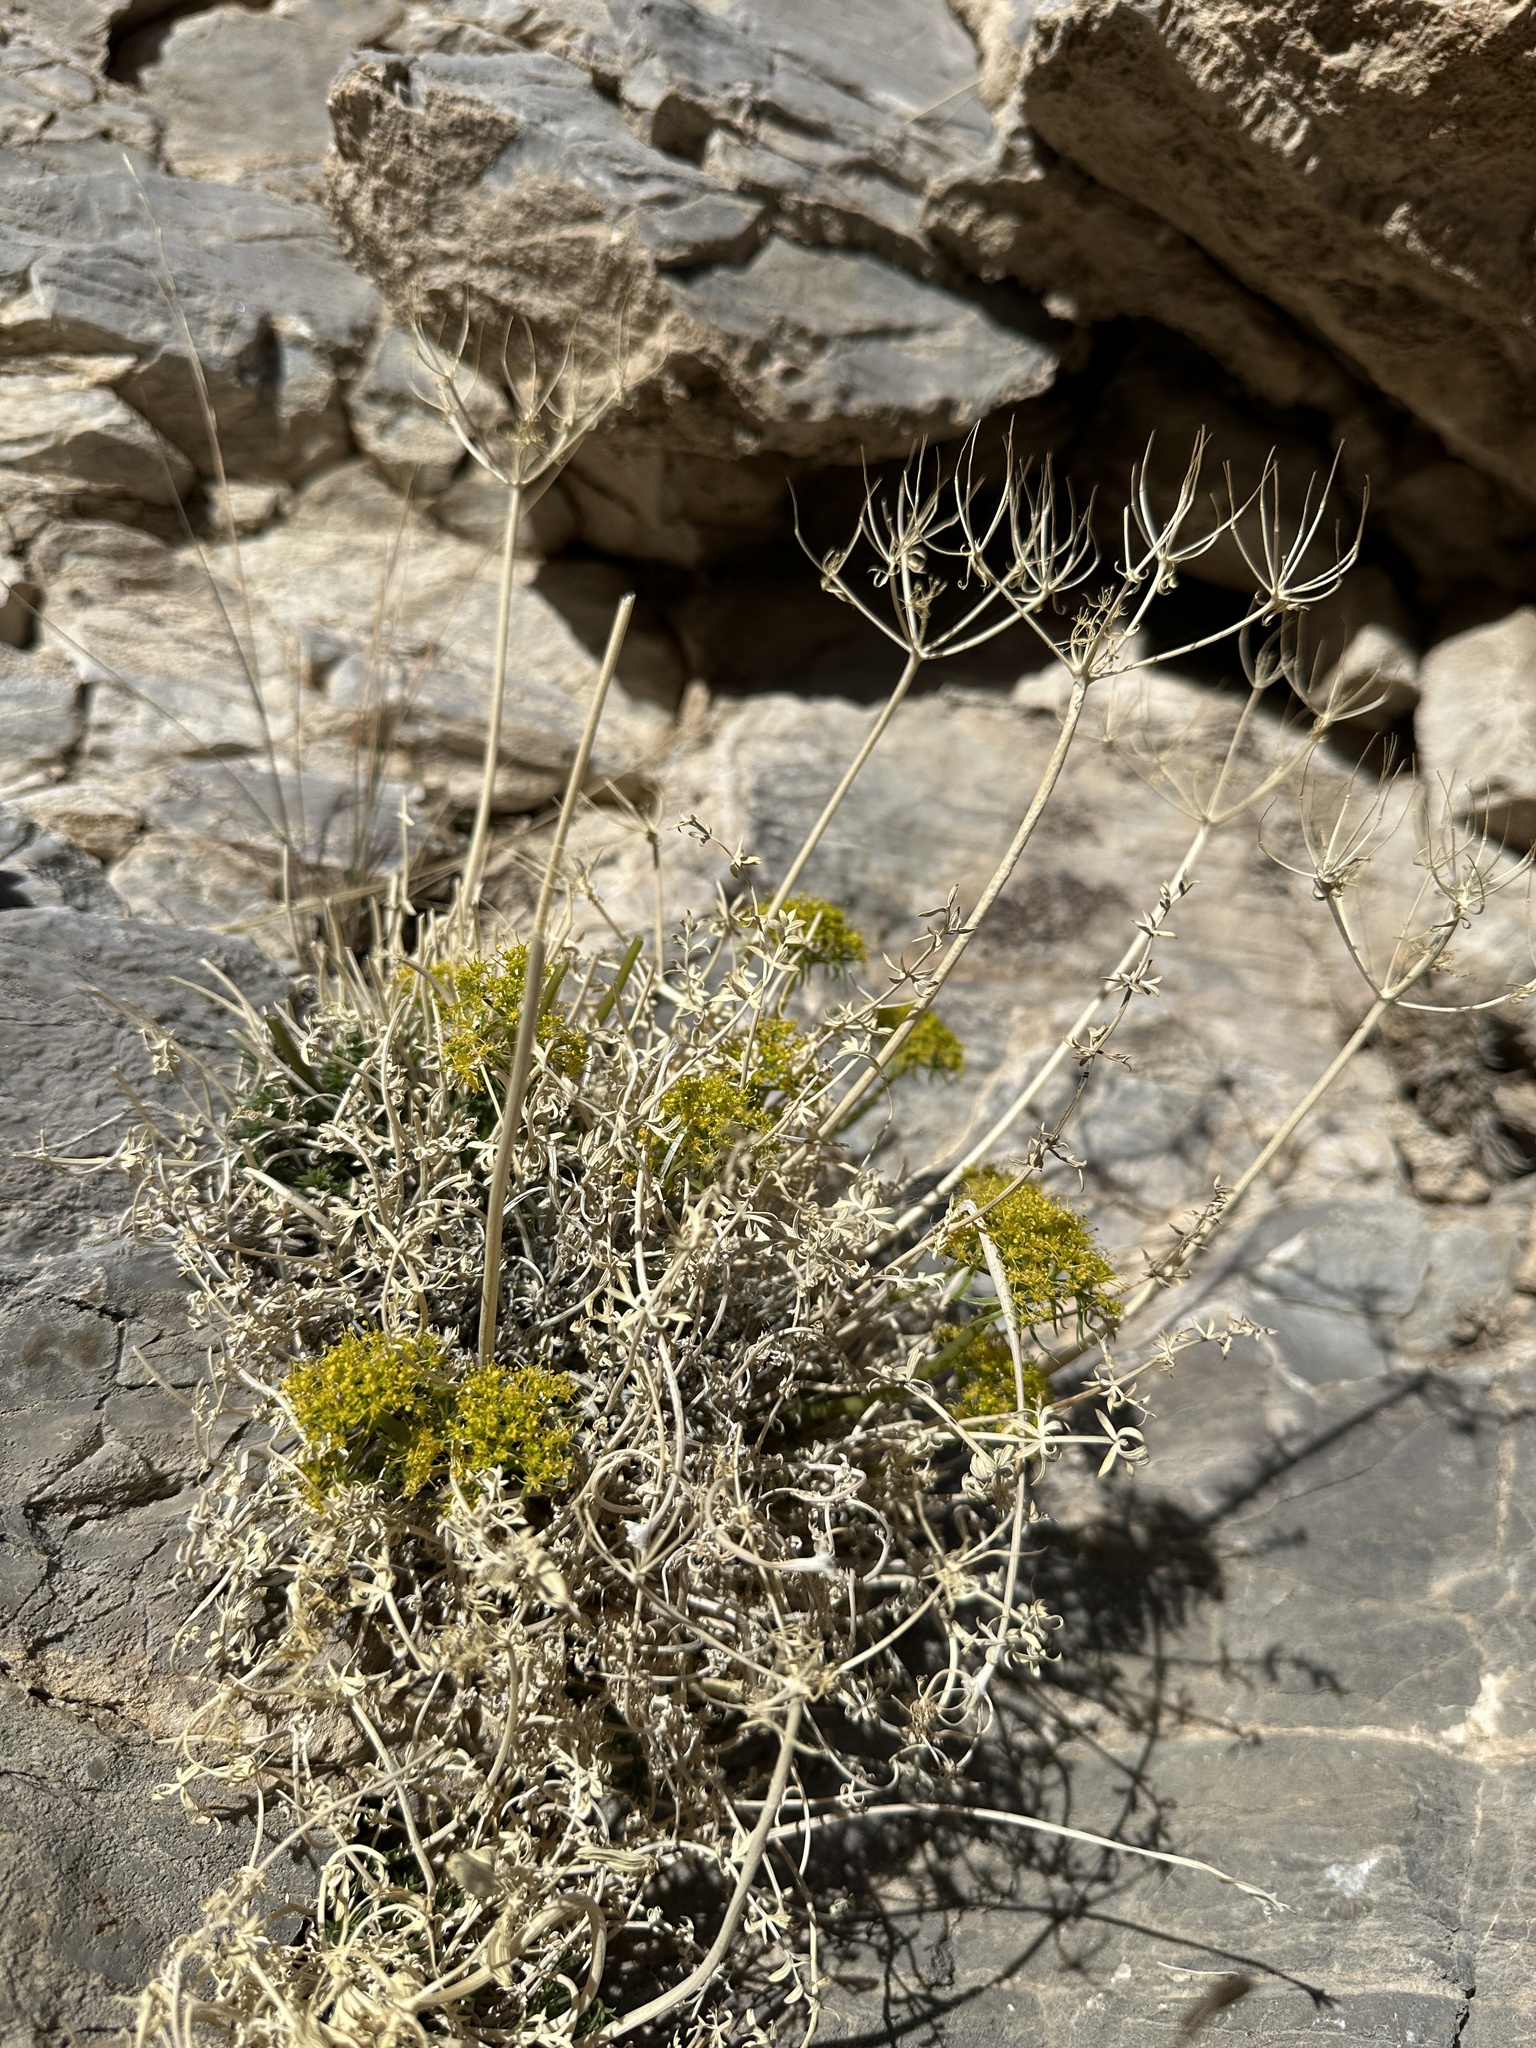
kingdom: Plantae
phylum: Tracheophyta
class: Magnoliopsida
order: Apiales
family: Apiaceae
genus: Lomatium
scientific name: Lomatium parryi
